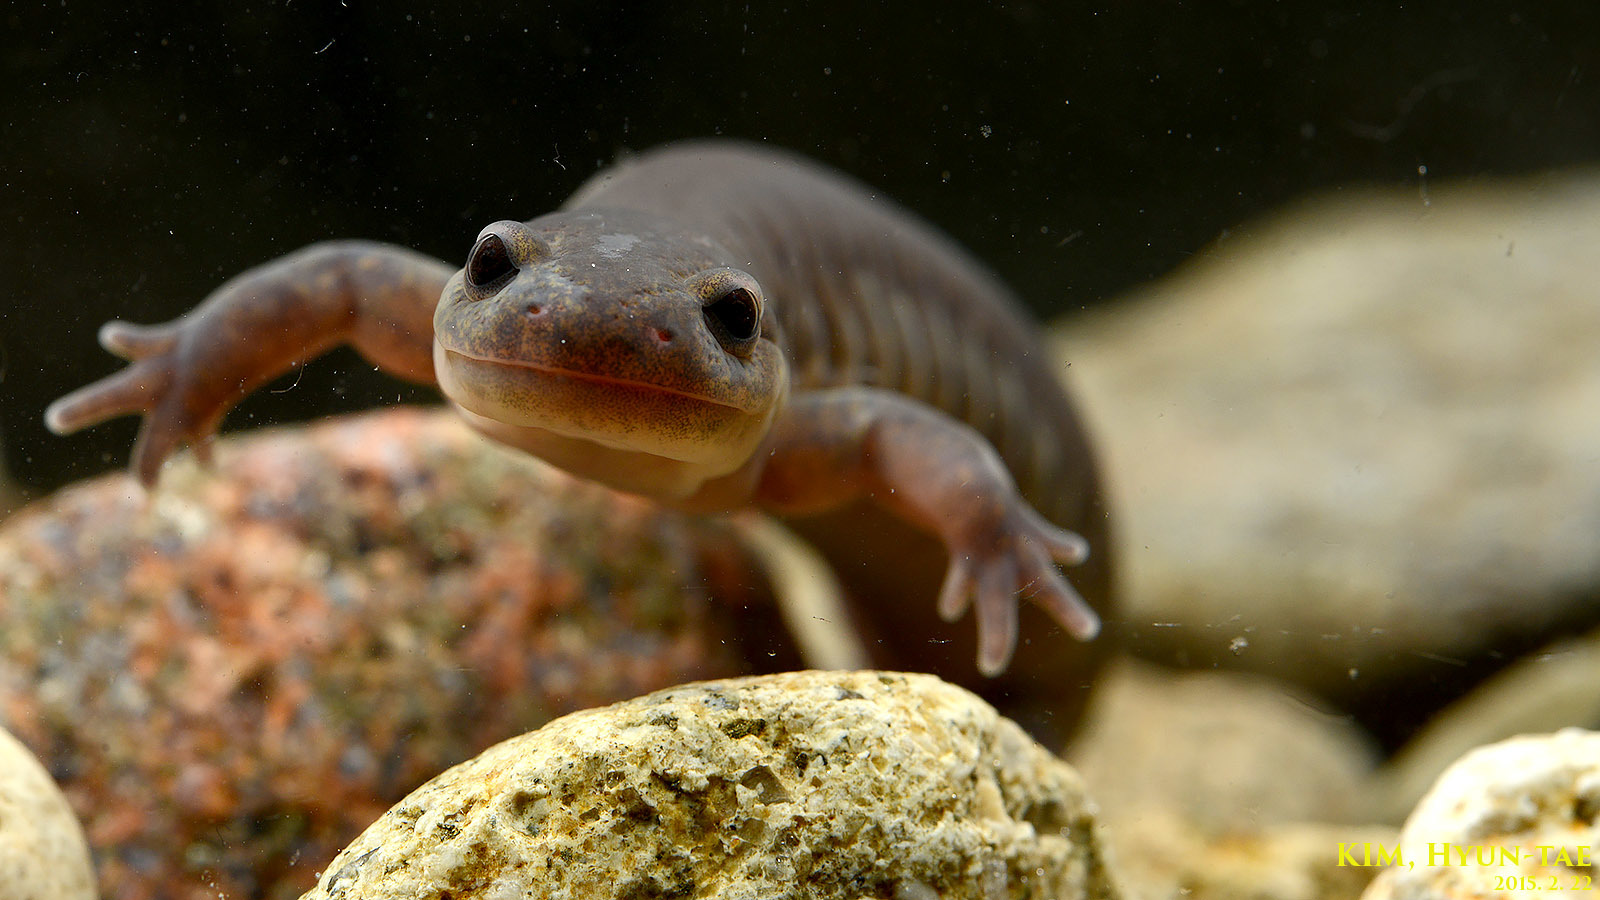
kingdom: Animalia
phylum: Chordata
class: Amphibia
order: Caudata
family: Hynobiidae
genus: Hynobius
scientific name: Hynobius yangi
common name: Yangi salamander
